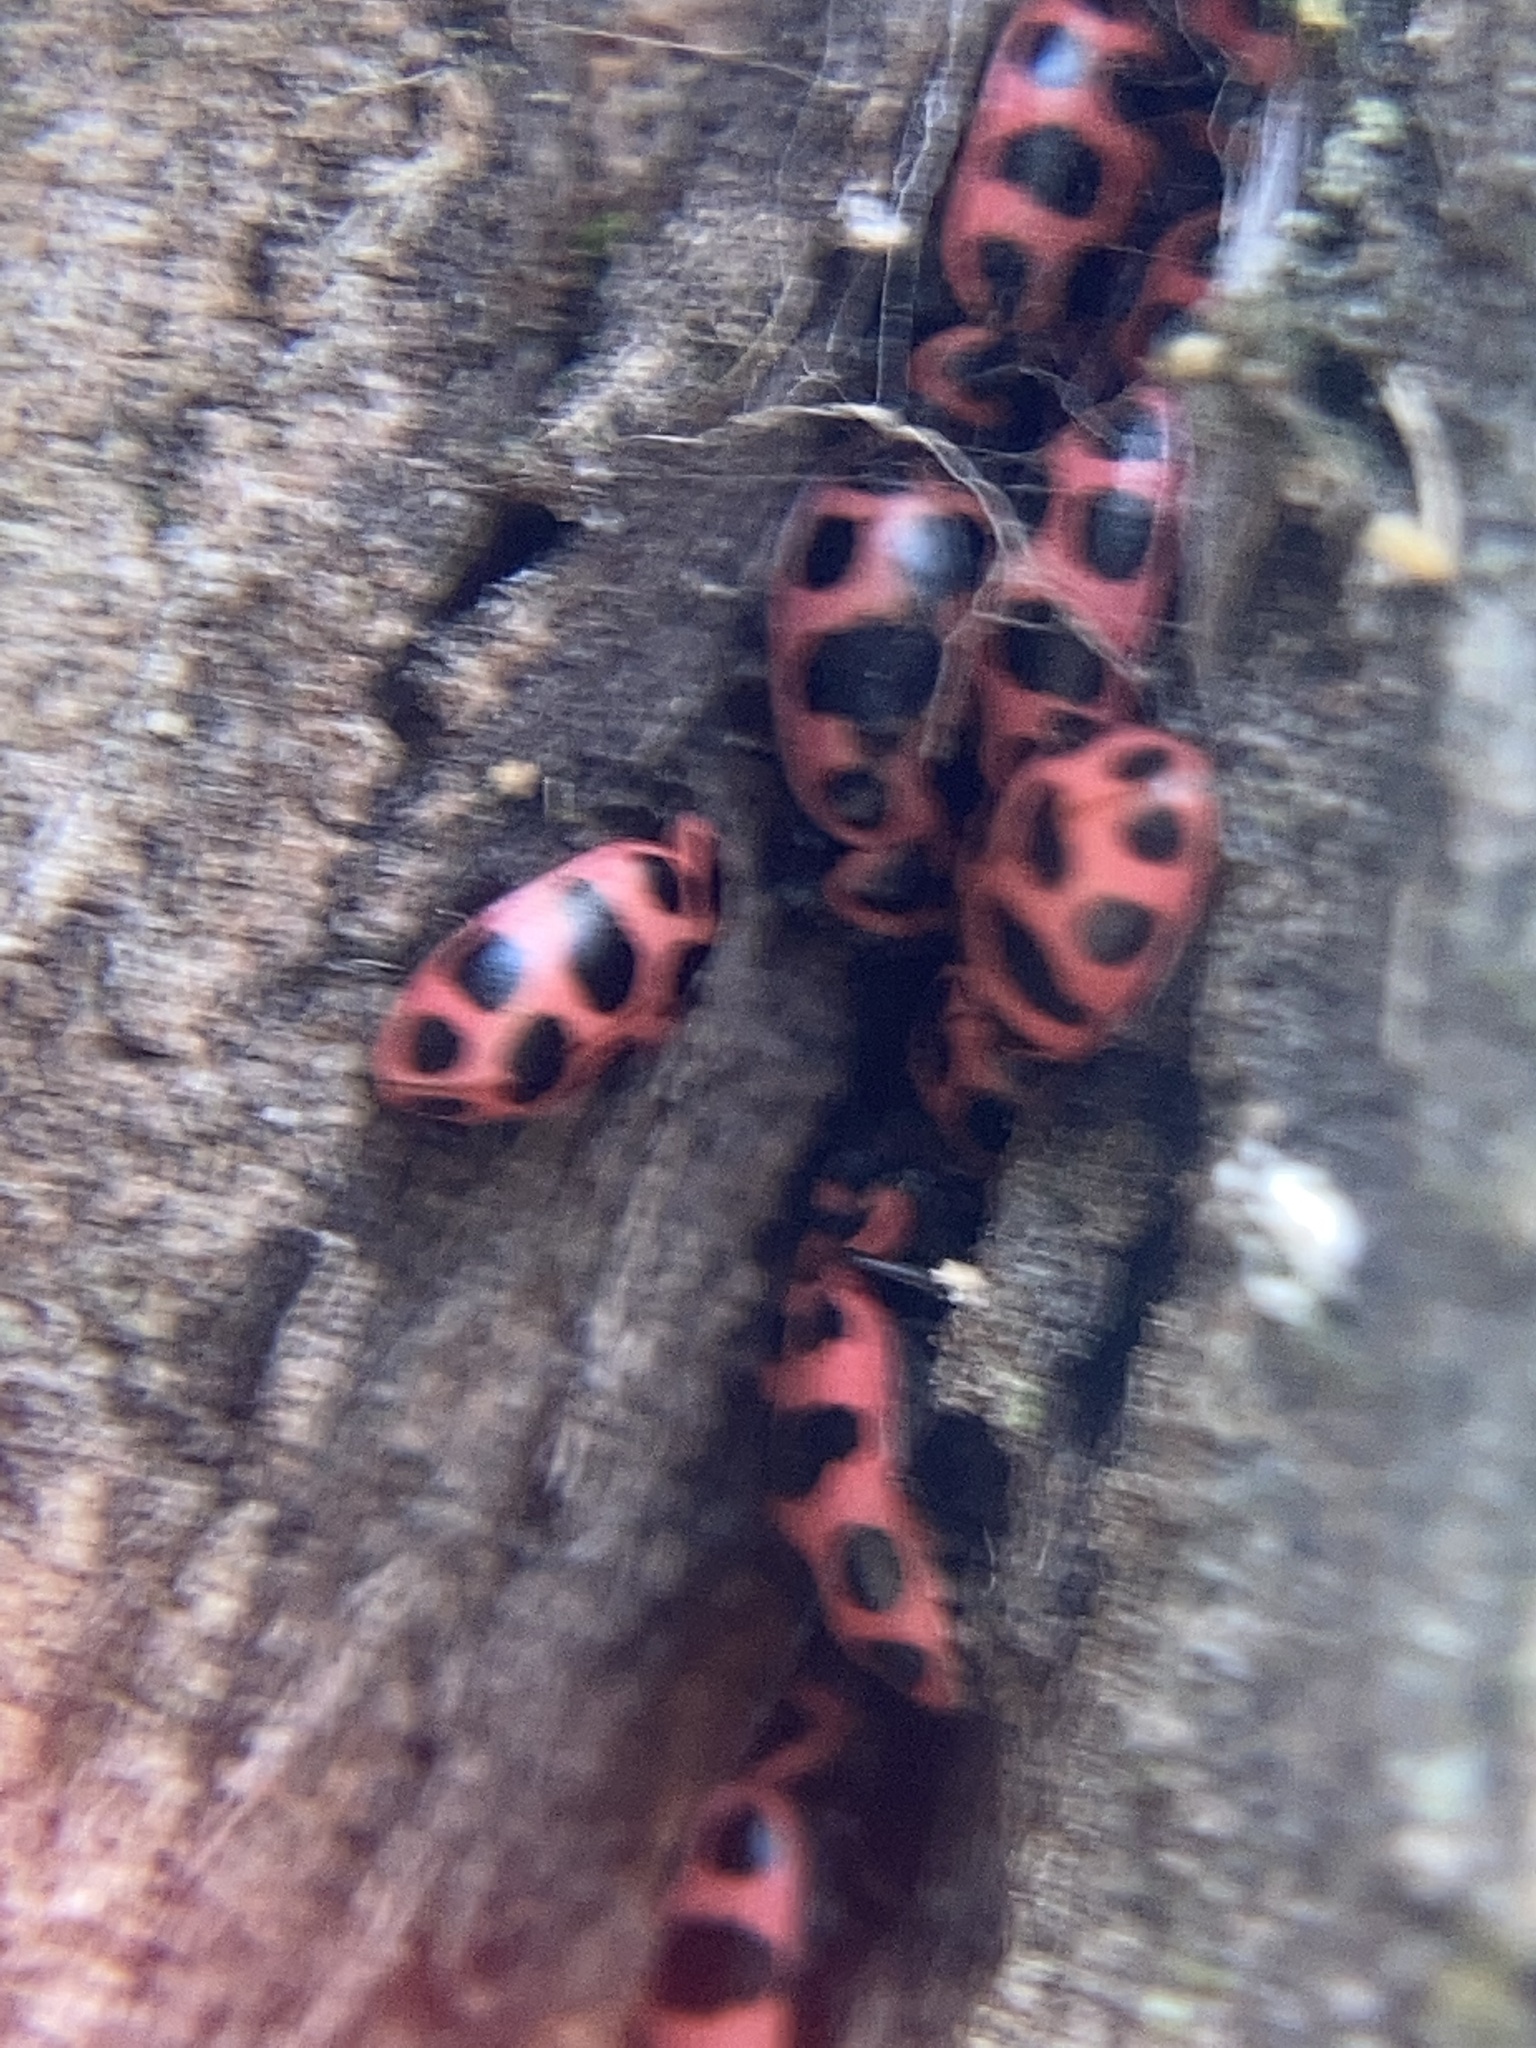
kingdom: Animalia
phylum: Arthropoda
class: Insecta
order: Coleoptera
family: Coccinellidae
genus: Coleomegilla
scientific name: Coleomegilla maculata
